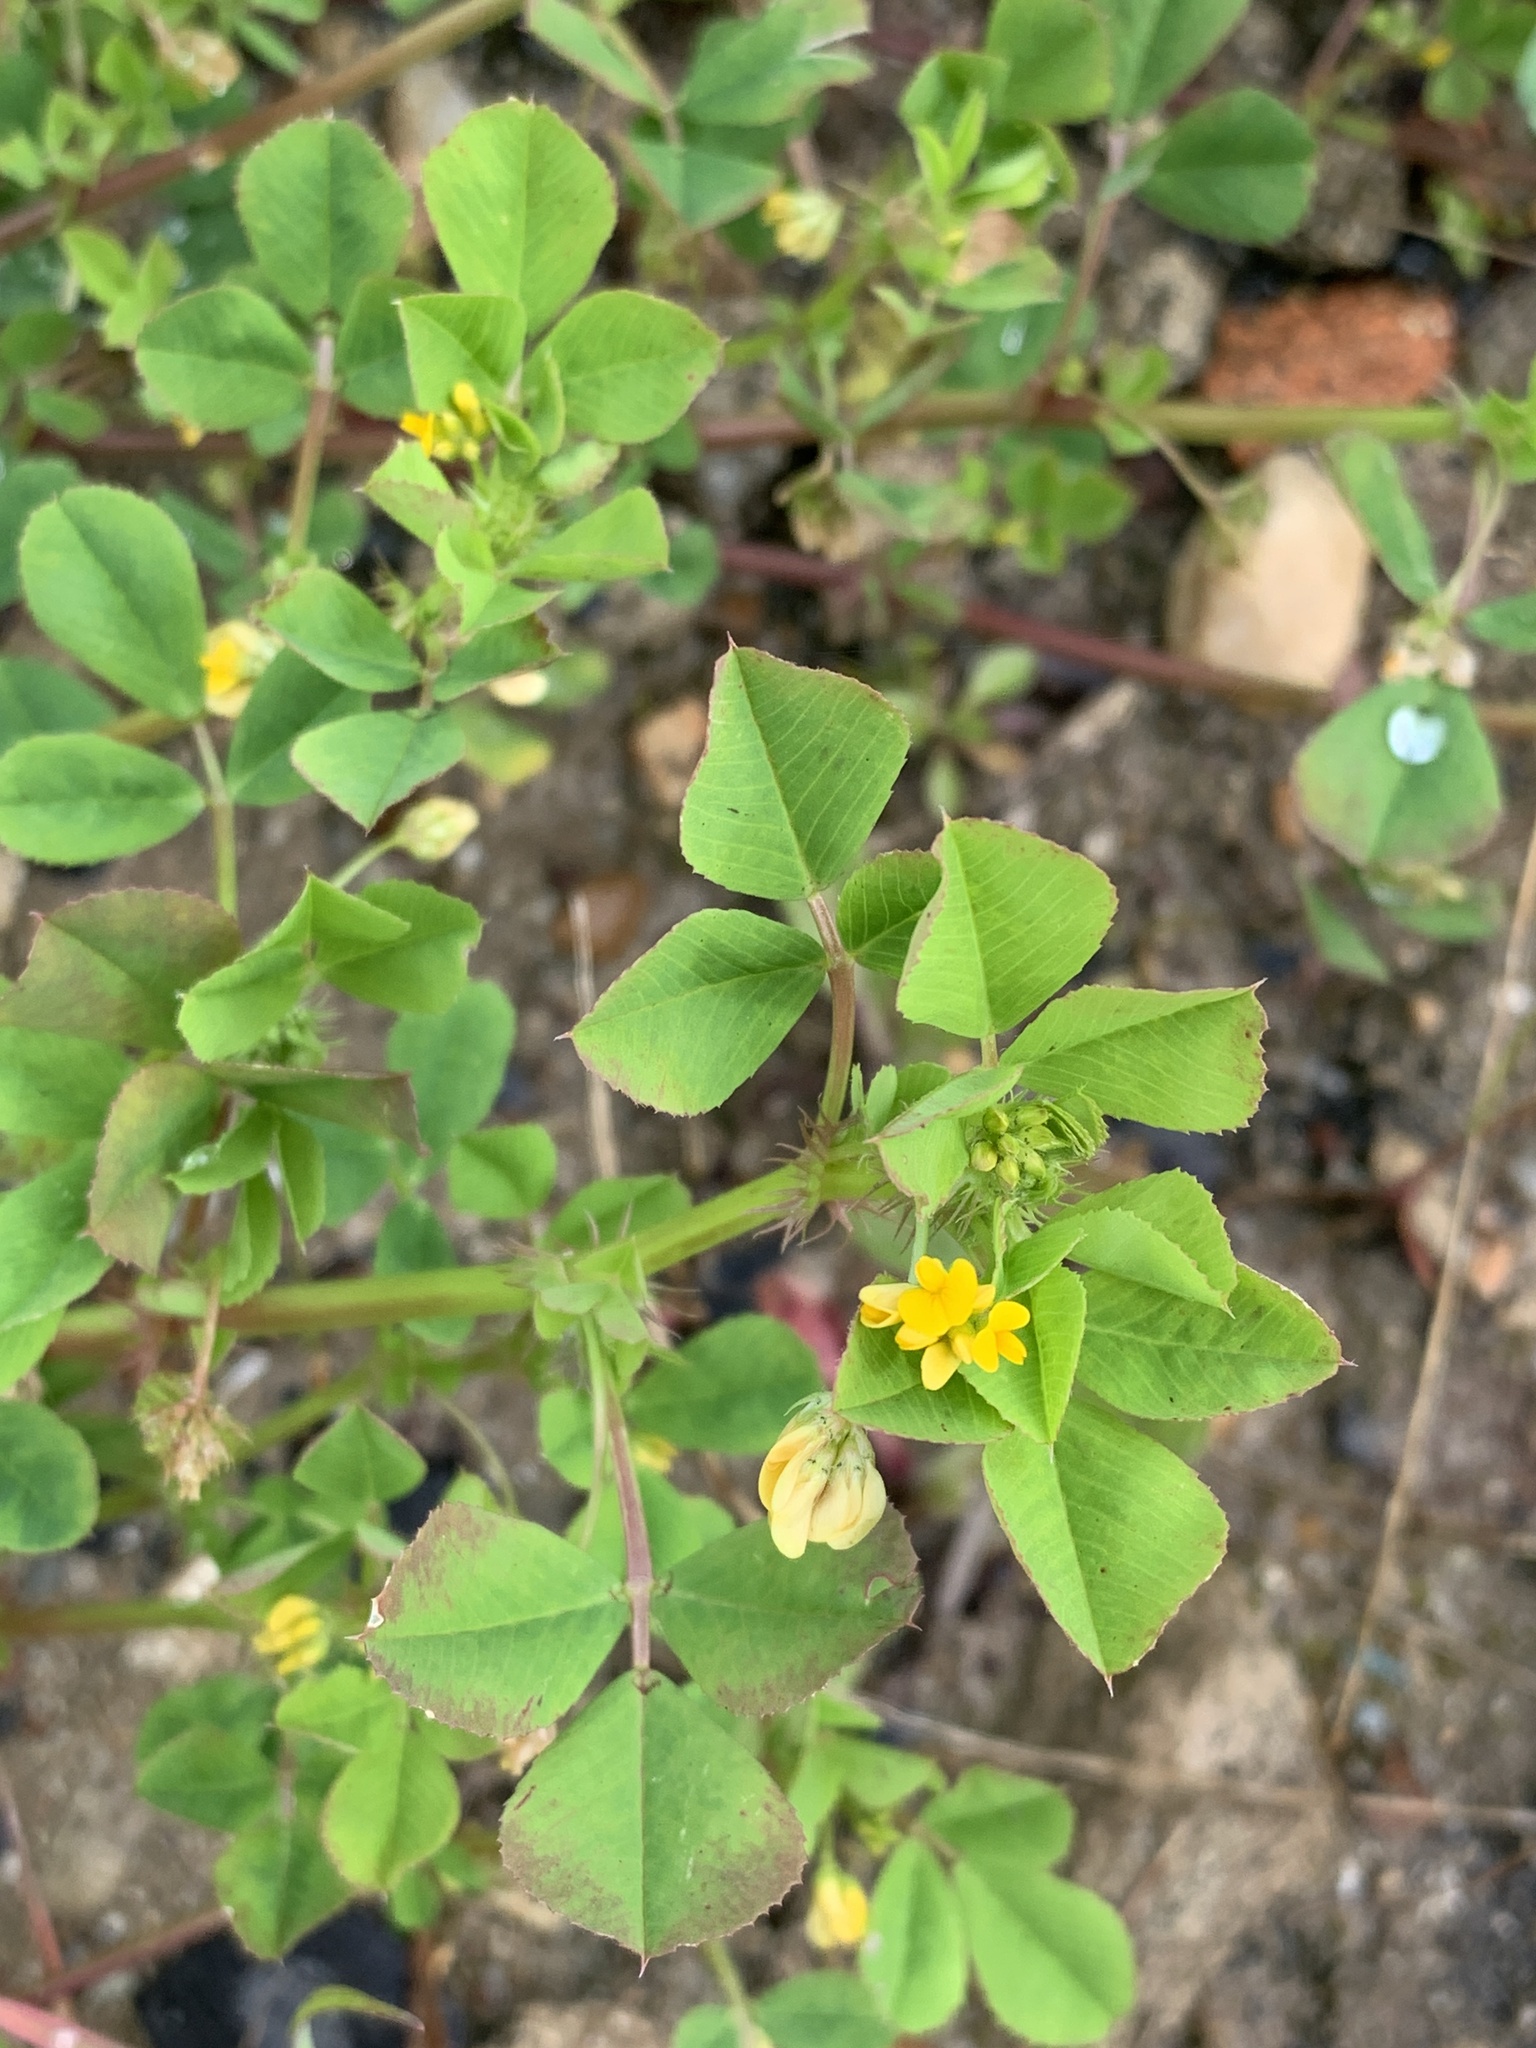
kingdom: Plantae
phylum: Tracheophyta
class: Magnoliopsida
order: Fabales
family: Fabaceae
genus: Medicago
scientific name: Medicago polymorpha
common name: Burclover
